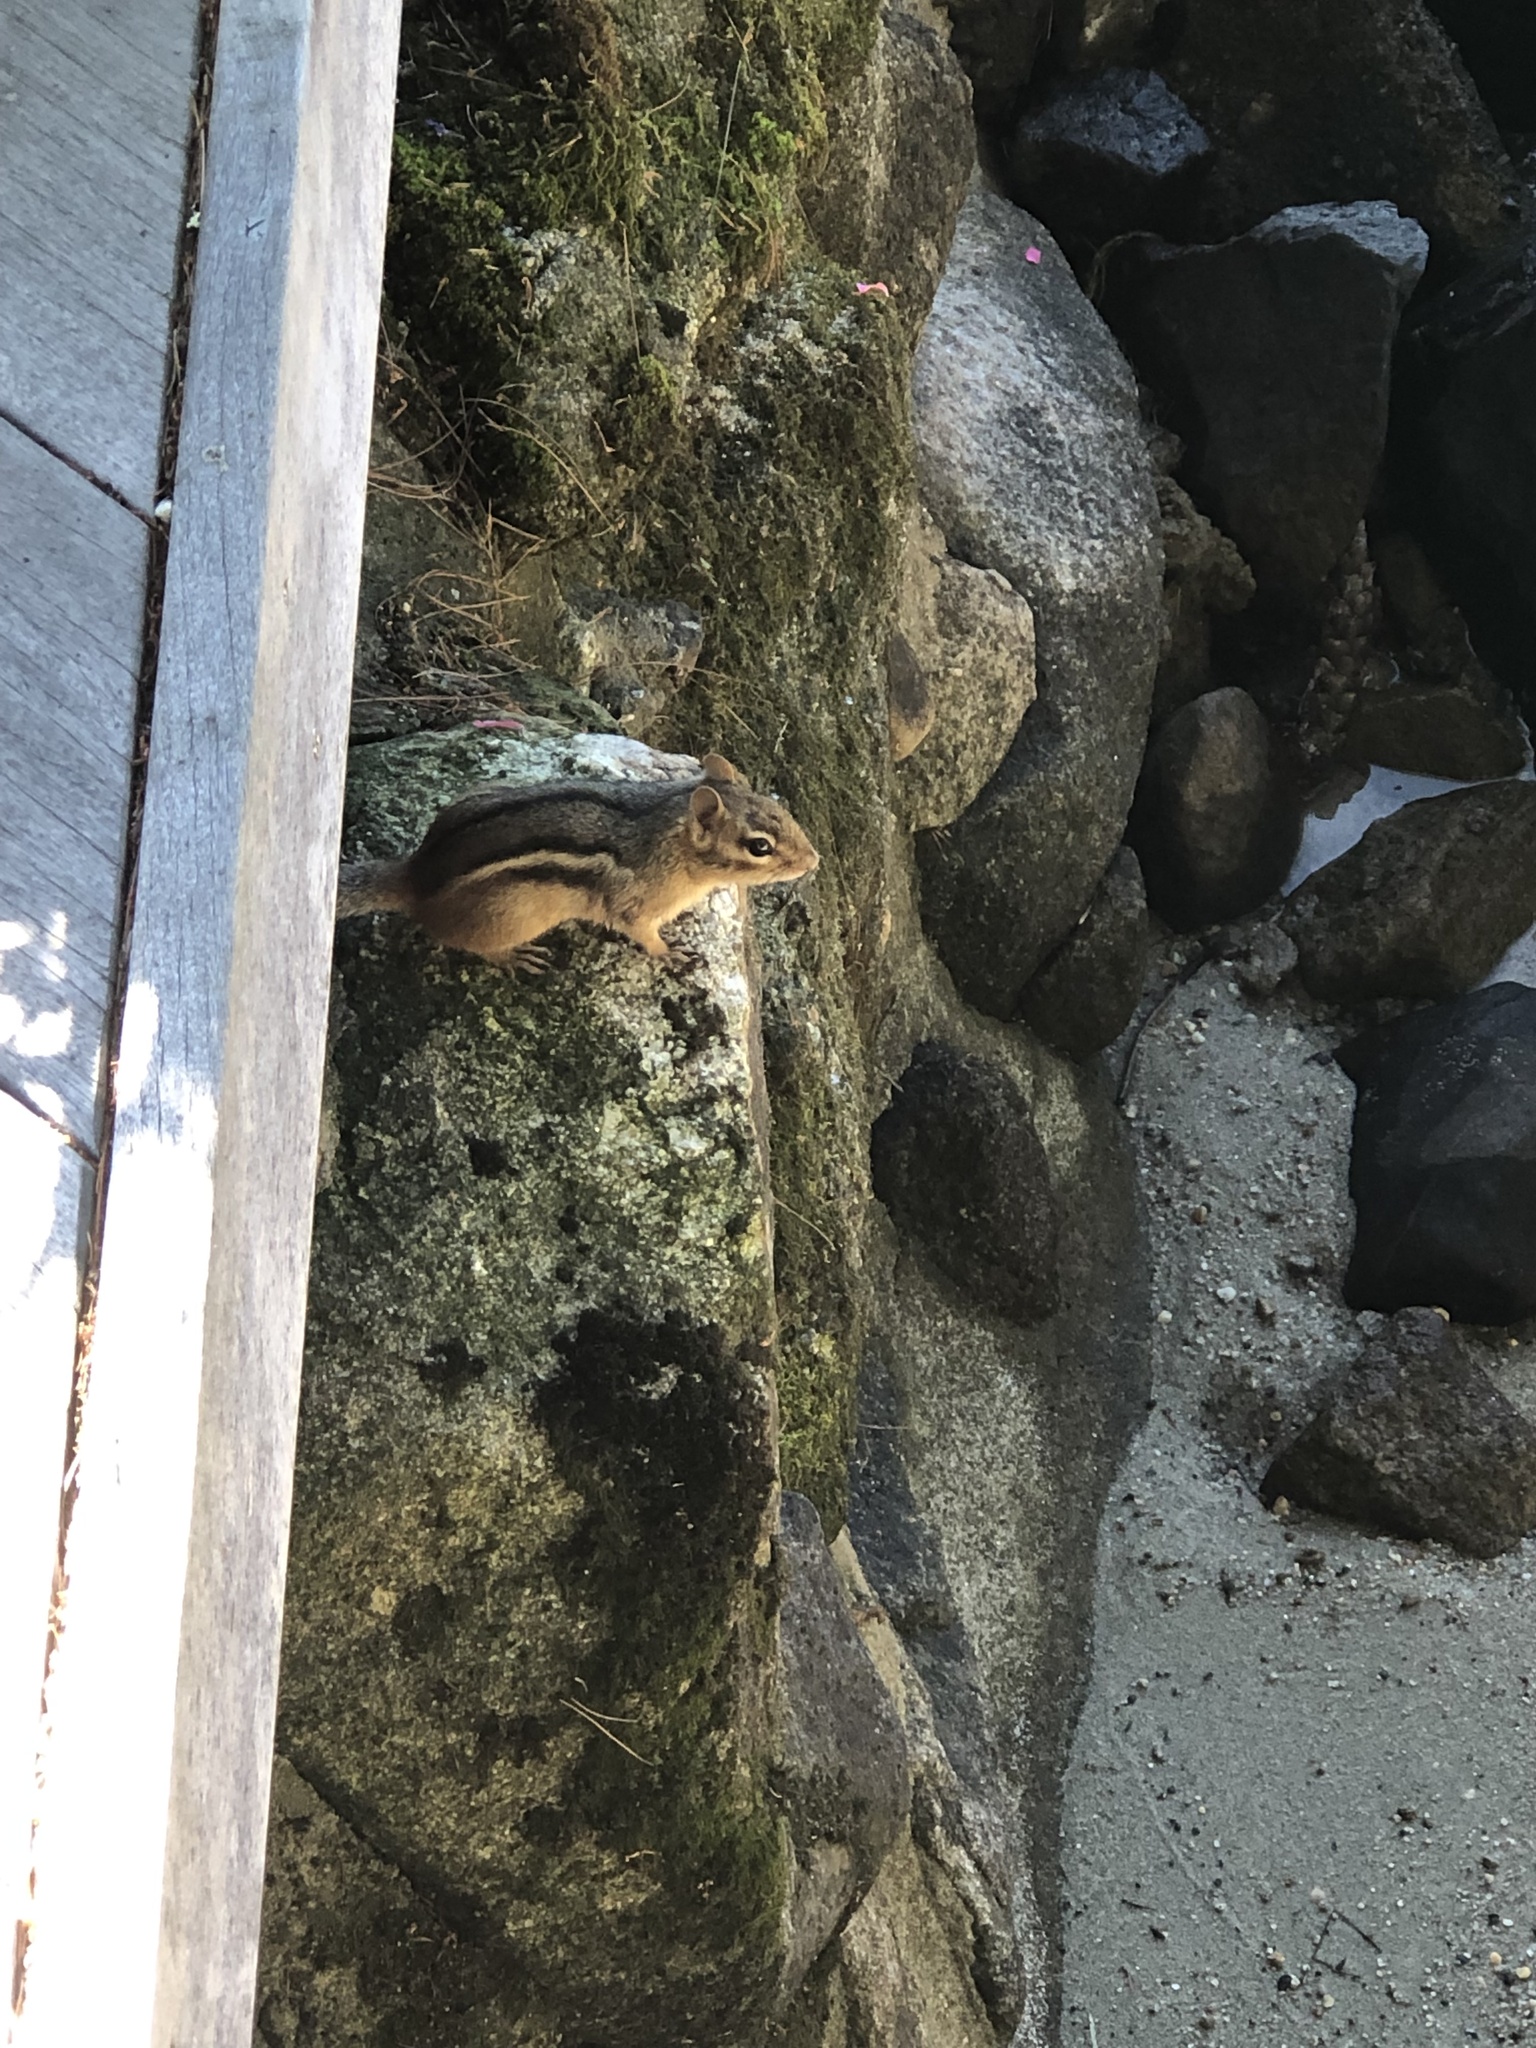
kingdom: Animalia
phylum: Chordata
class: Mammalia
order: Rodentia
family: Sciuridae
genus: Tamias
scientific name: Tamias striatus
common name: Eastern chipmunk
